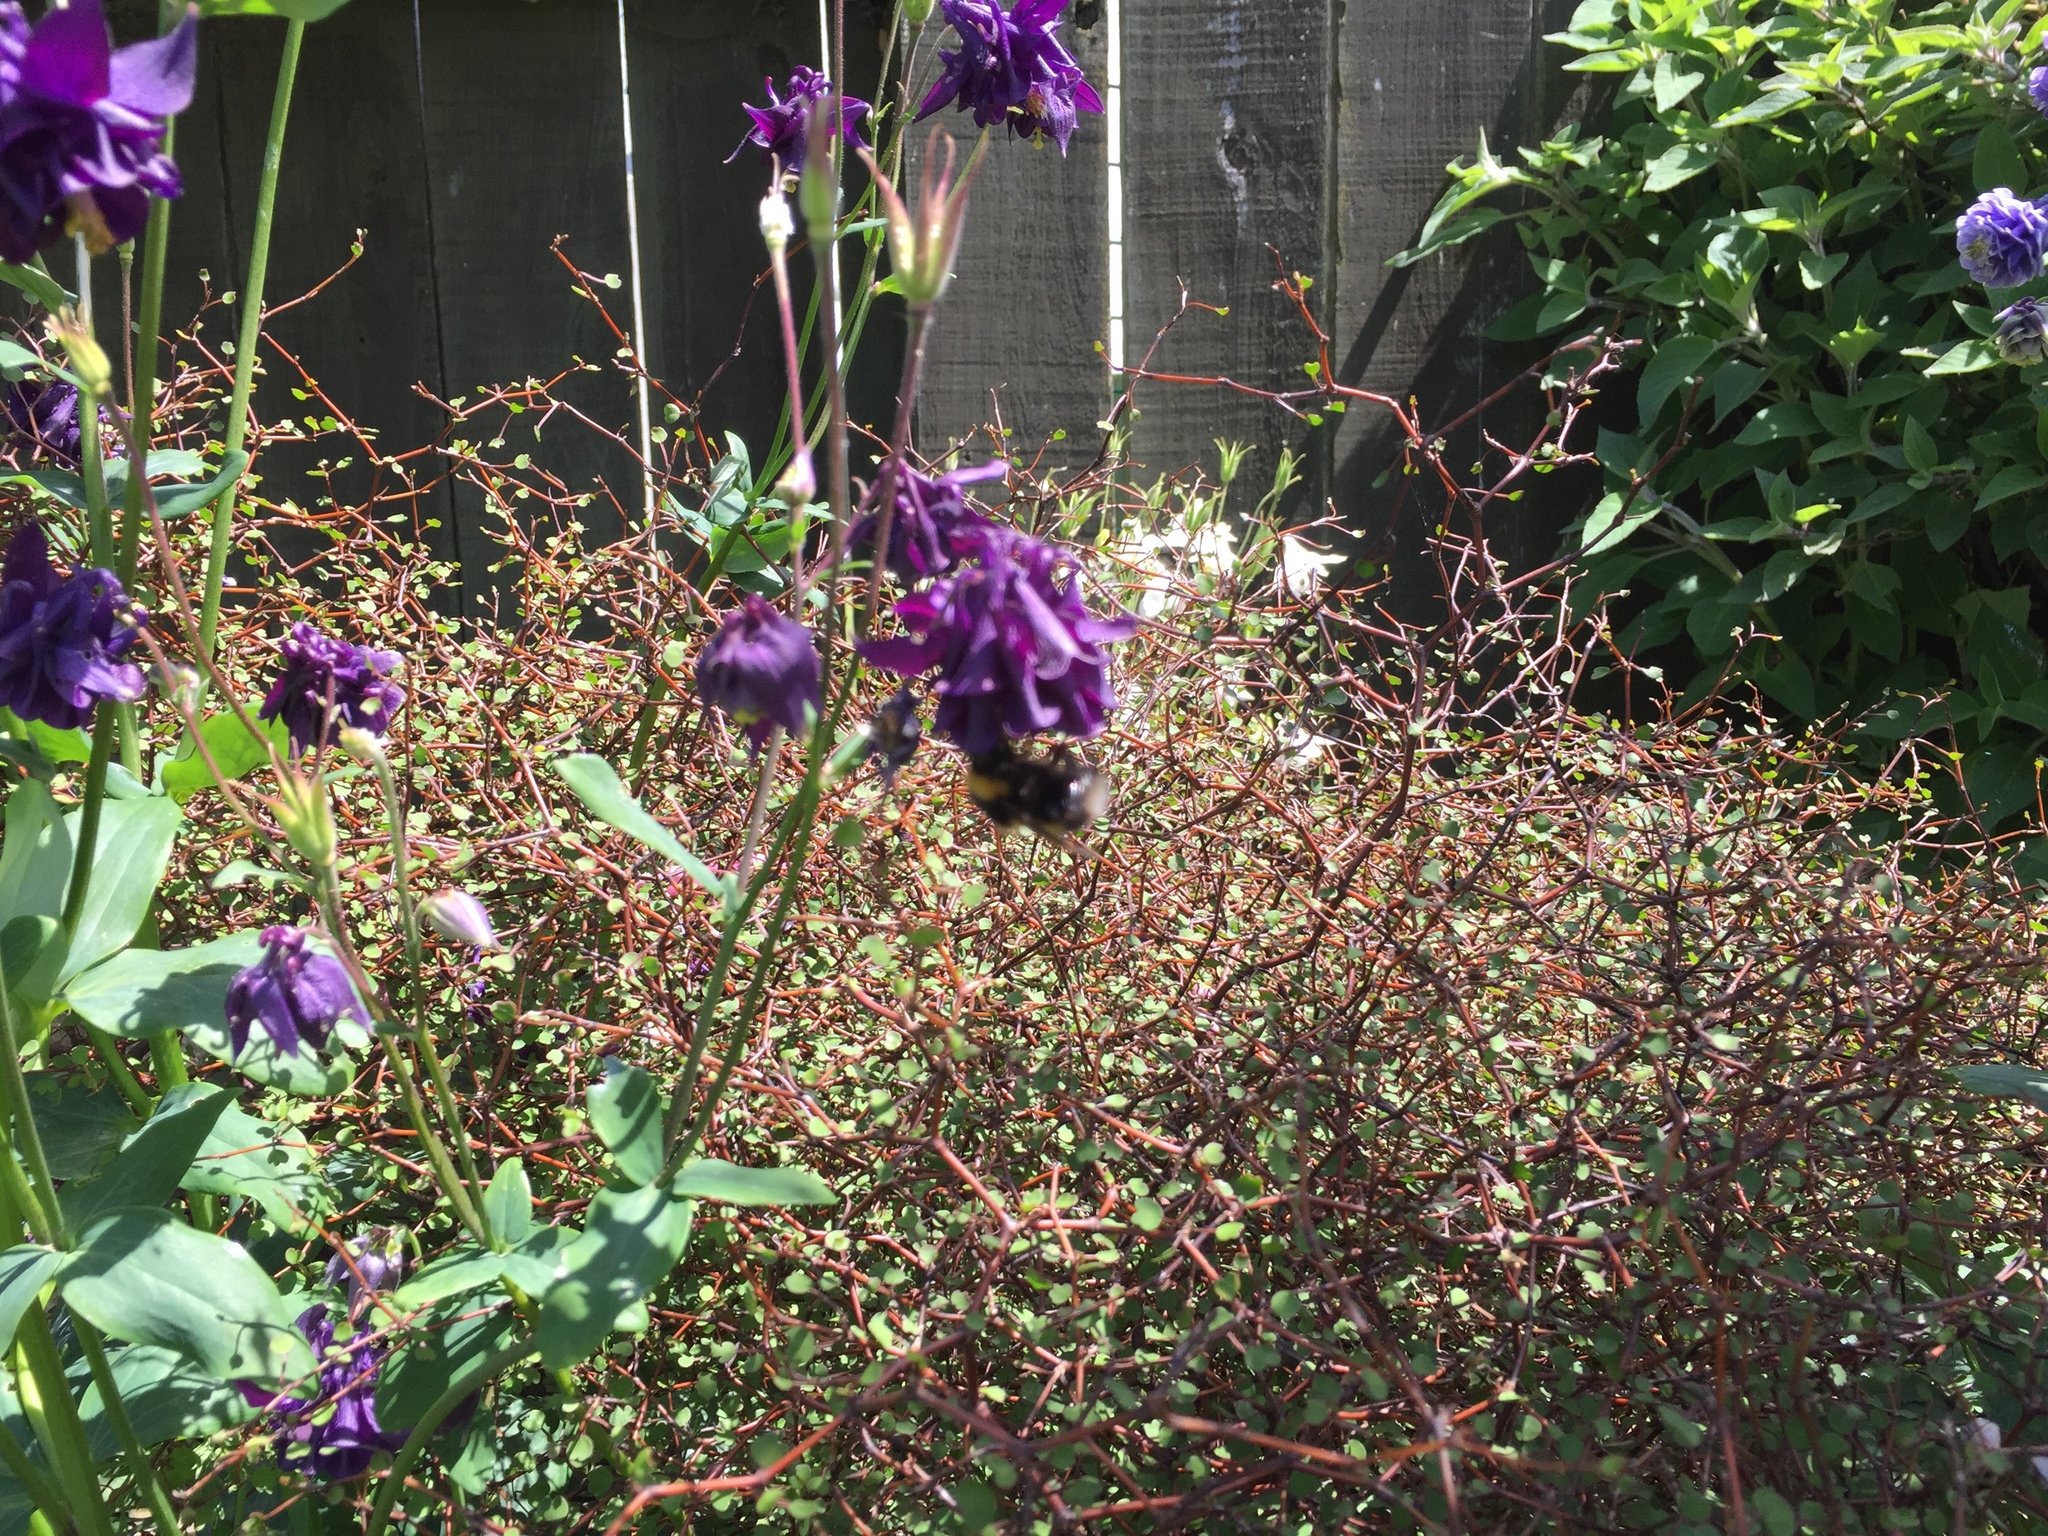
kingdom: Animalia
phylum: Arthropoda
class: Insecta
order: Hymenoptera
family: Apidae
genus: Bombus
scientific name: Bombus terrestris
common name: Buff-tailed bumblebee
